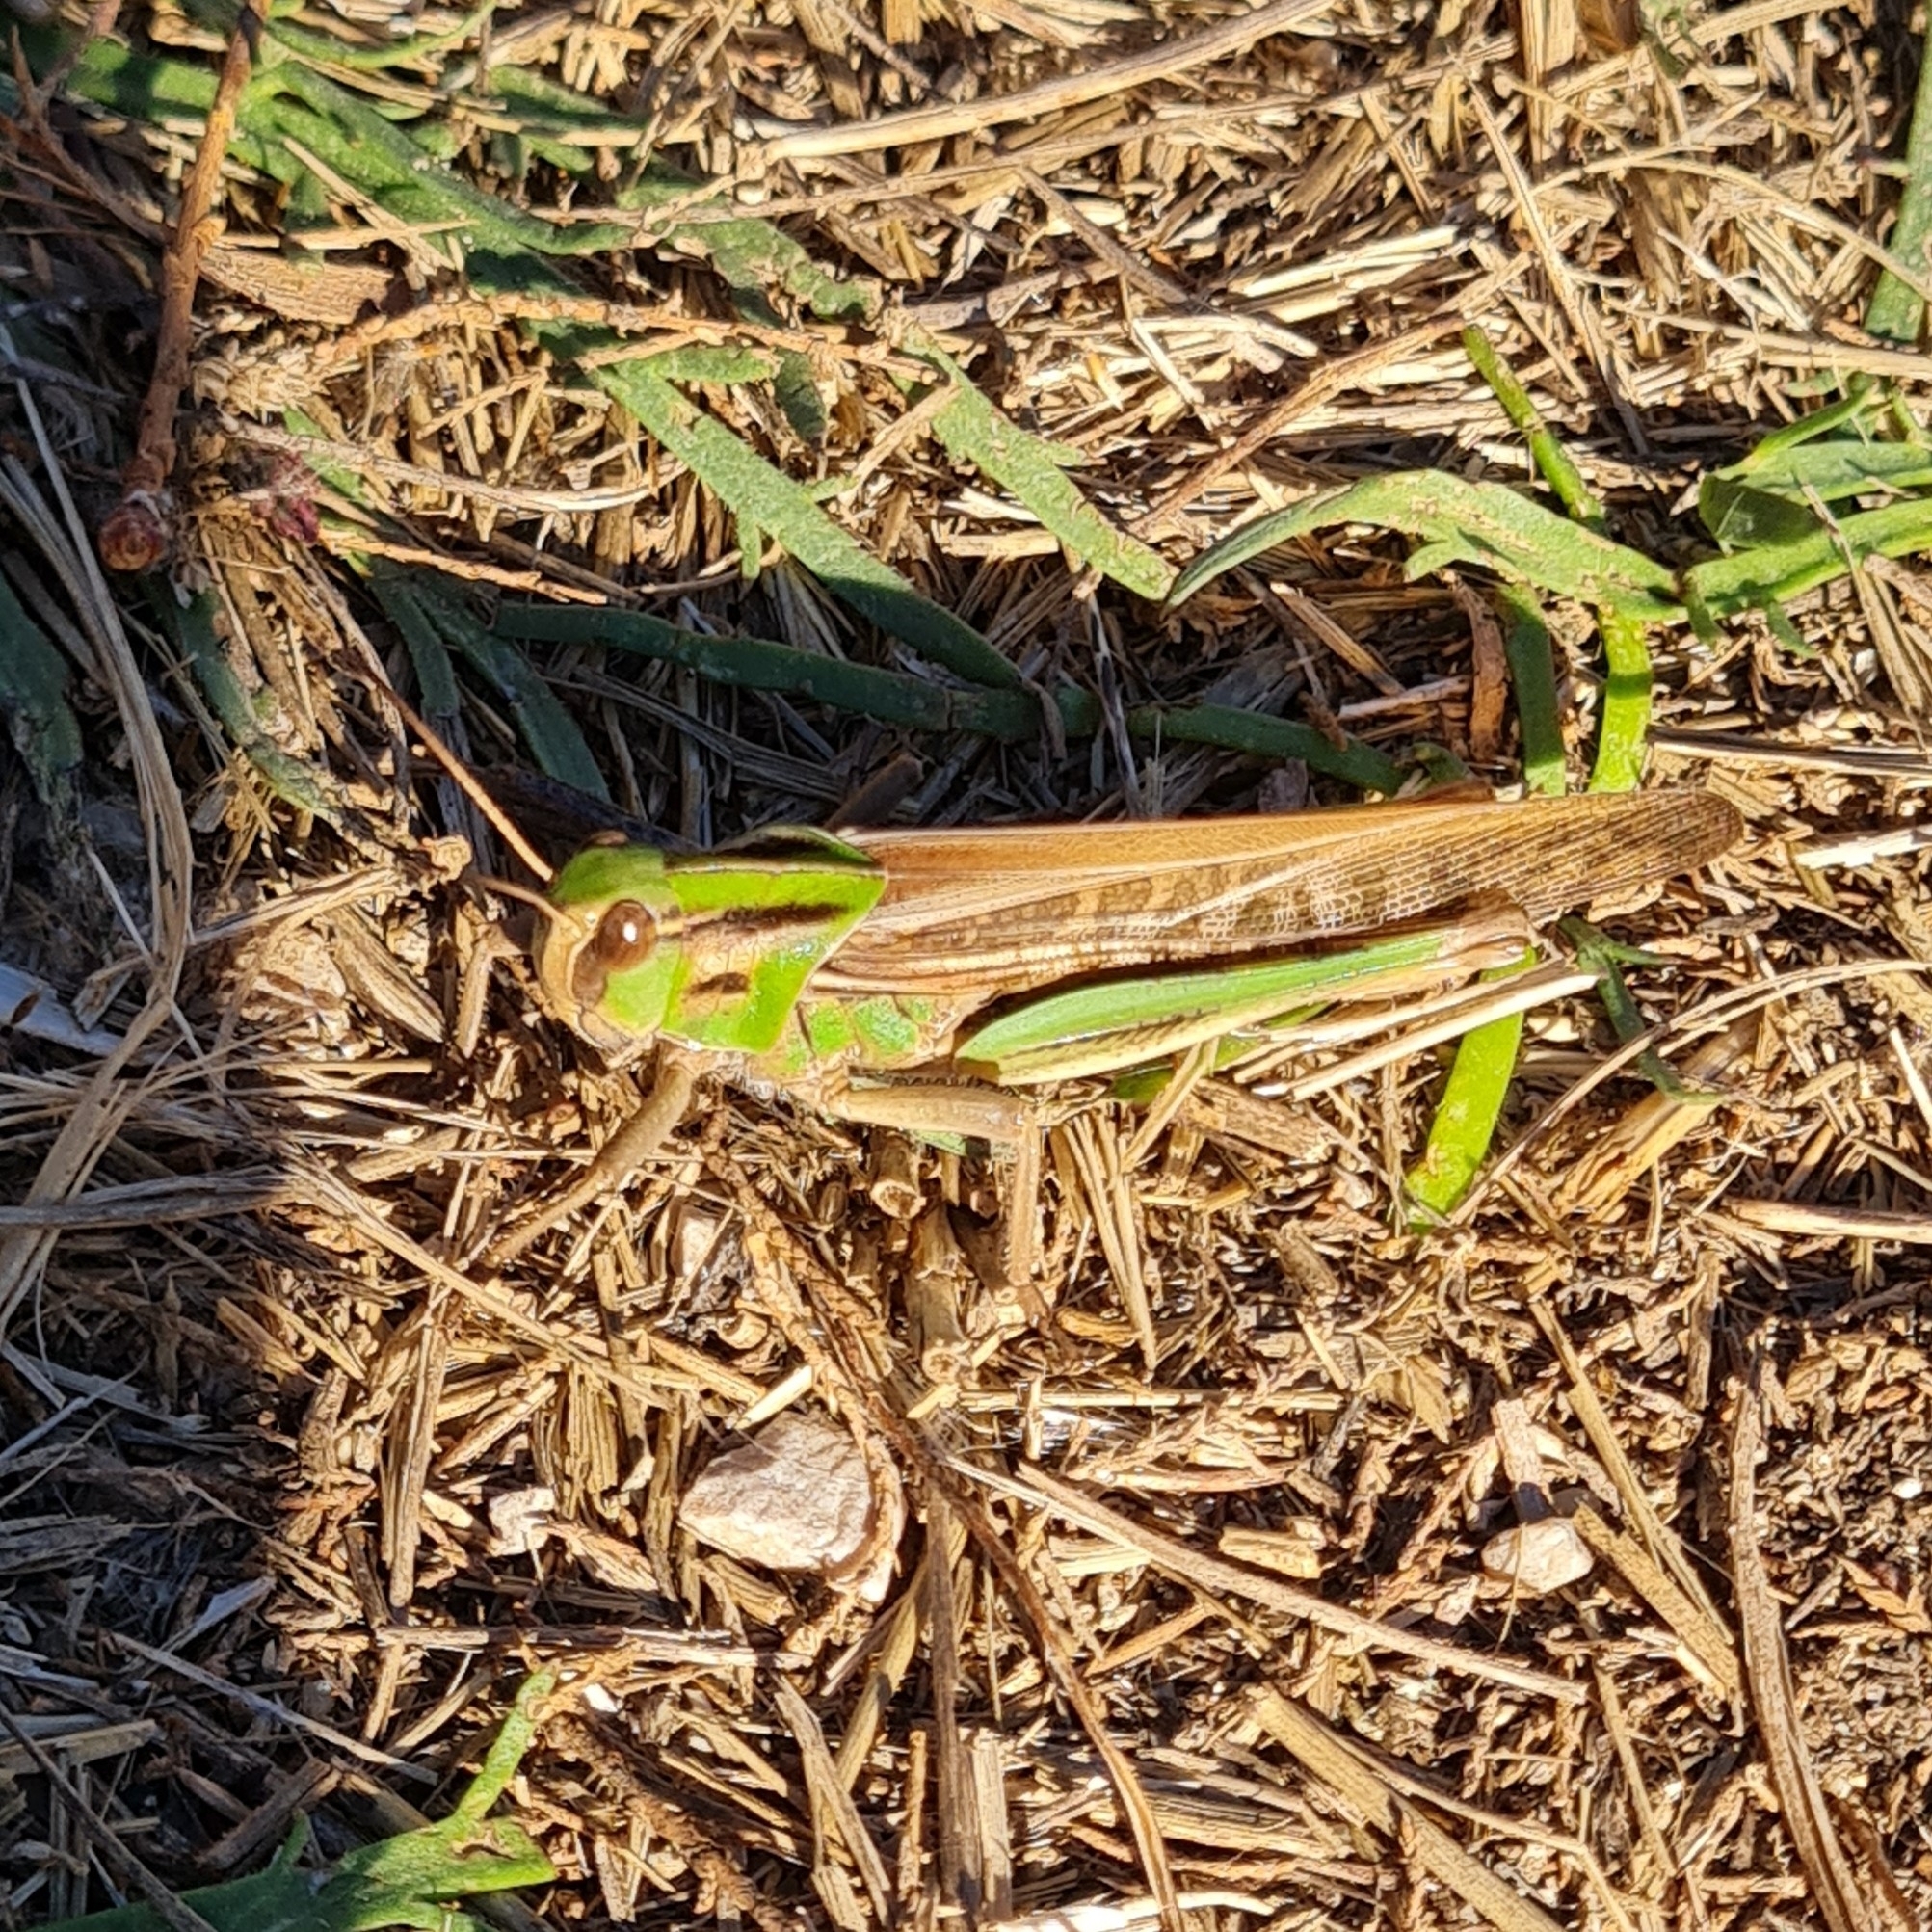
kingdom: Animalia
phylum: Arthropoda
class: Insecta
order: Orthoptera
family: Acrididae
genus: Locusta
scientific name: Locusta migratoria
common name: Migratory locust
